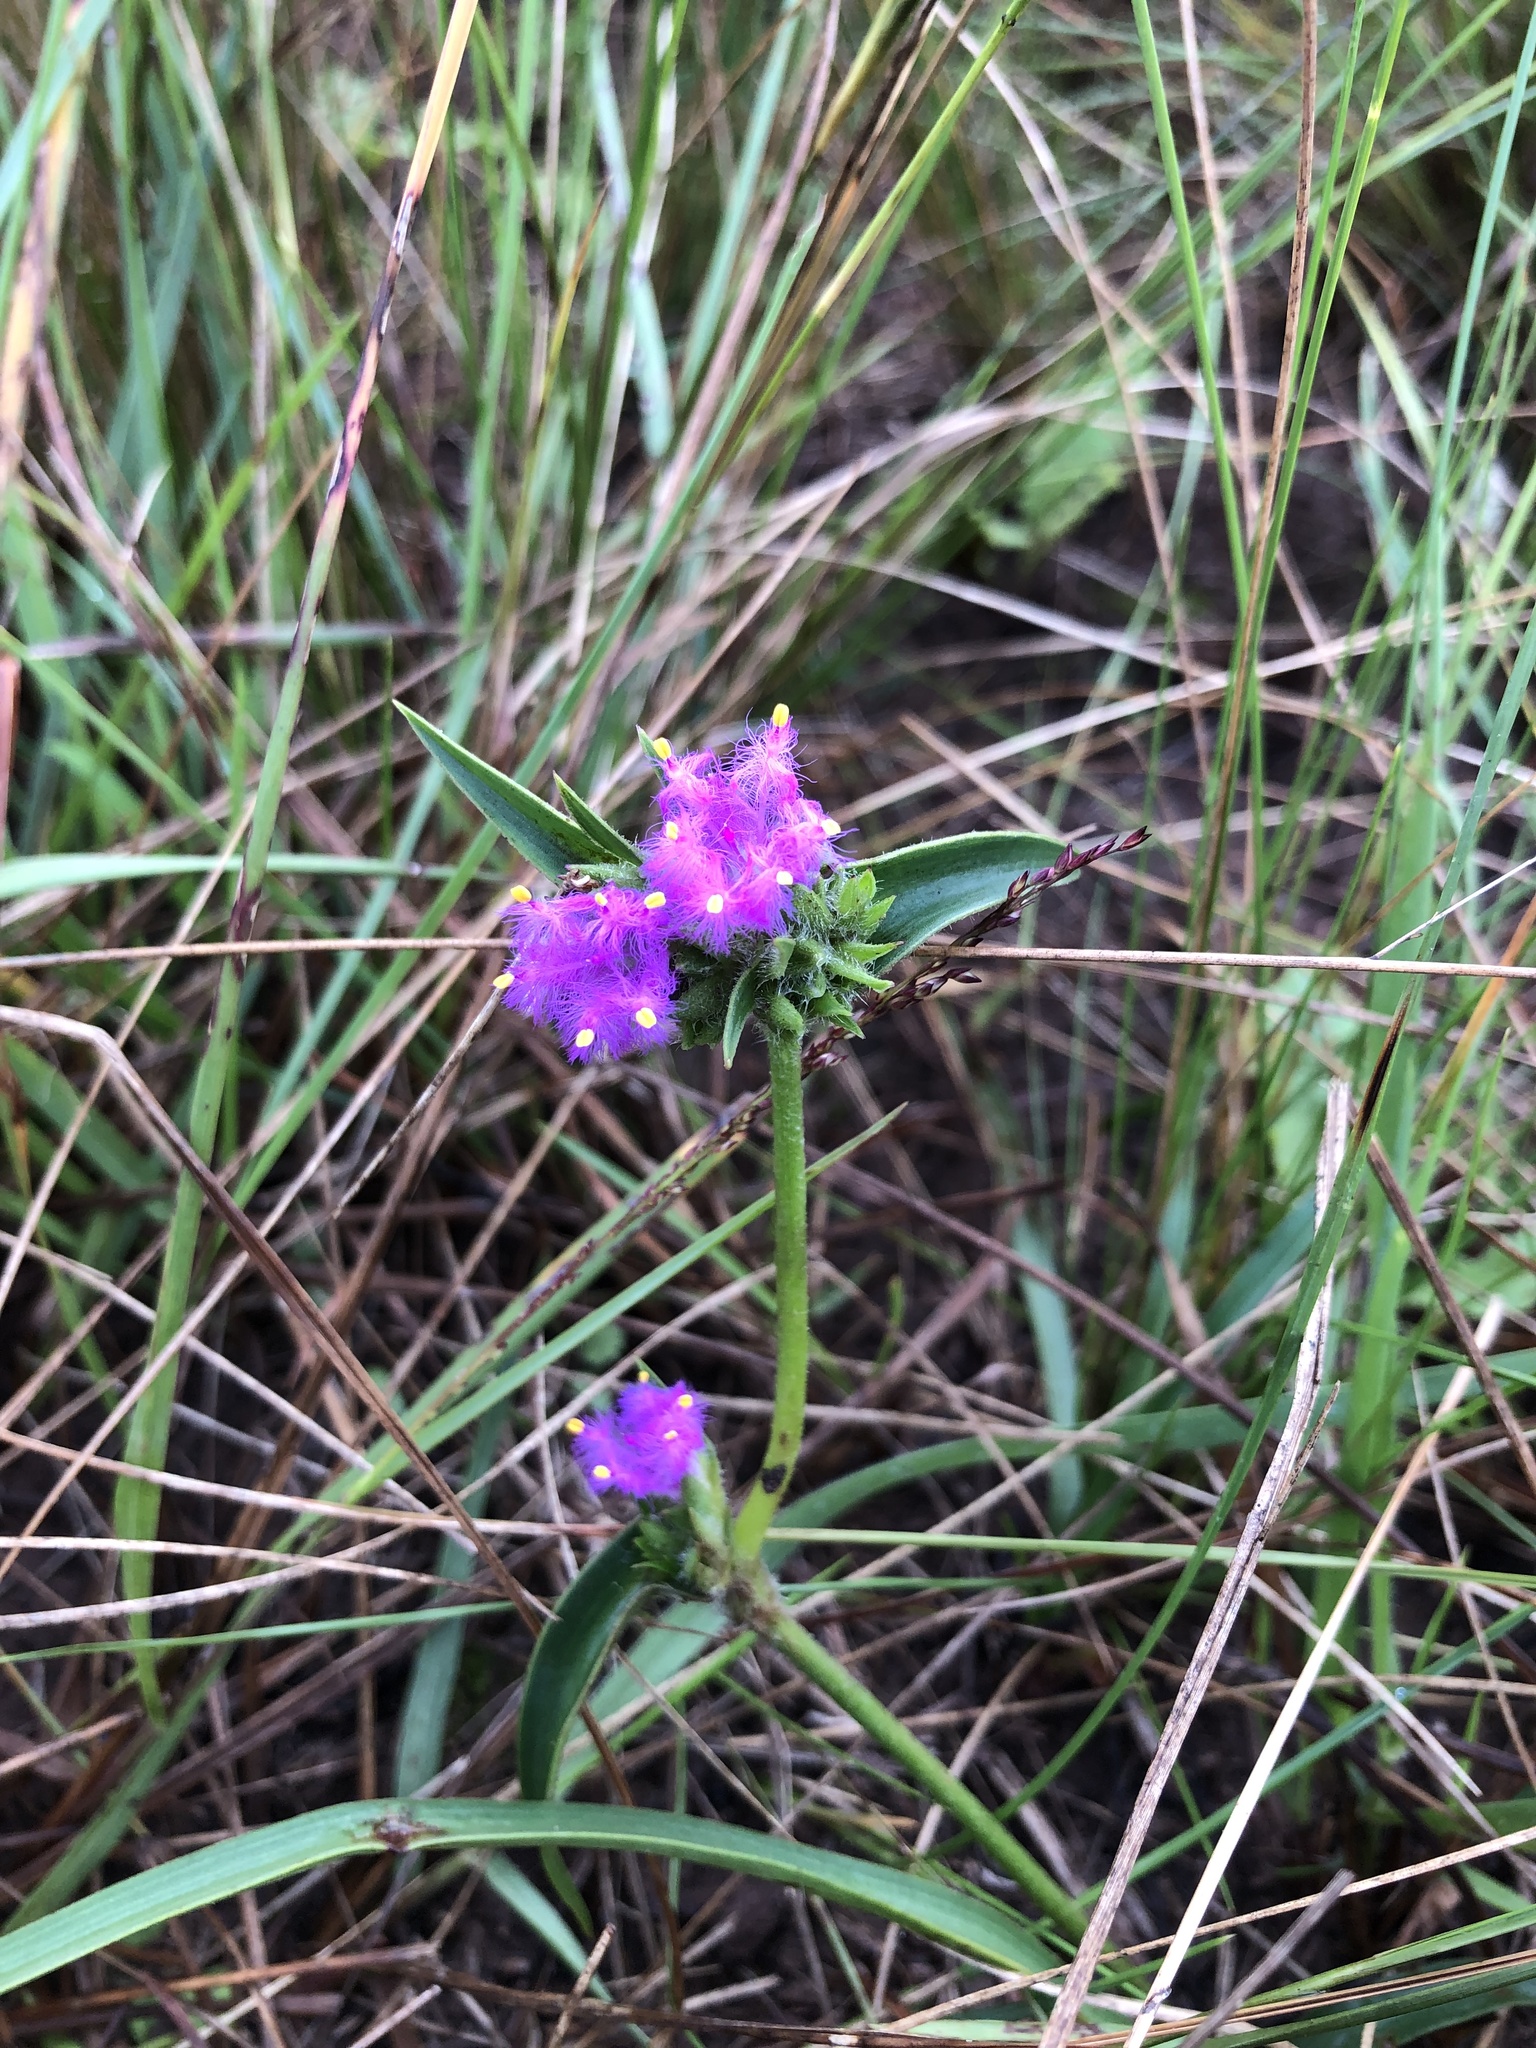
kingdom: Plantae
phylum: Tracheophyta
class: Liliopsida
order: Commelinales
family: Commelinaceae
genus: Cyanotis
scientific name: Cyanotis speciosa
